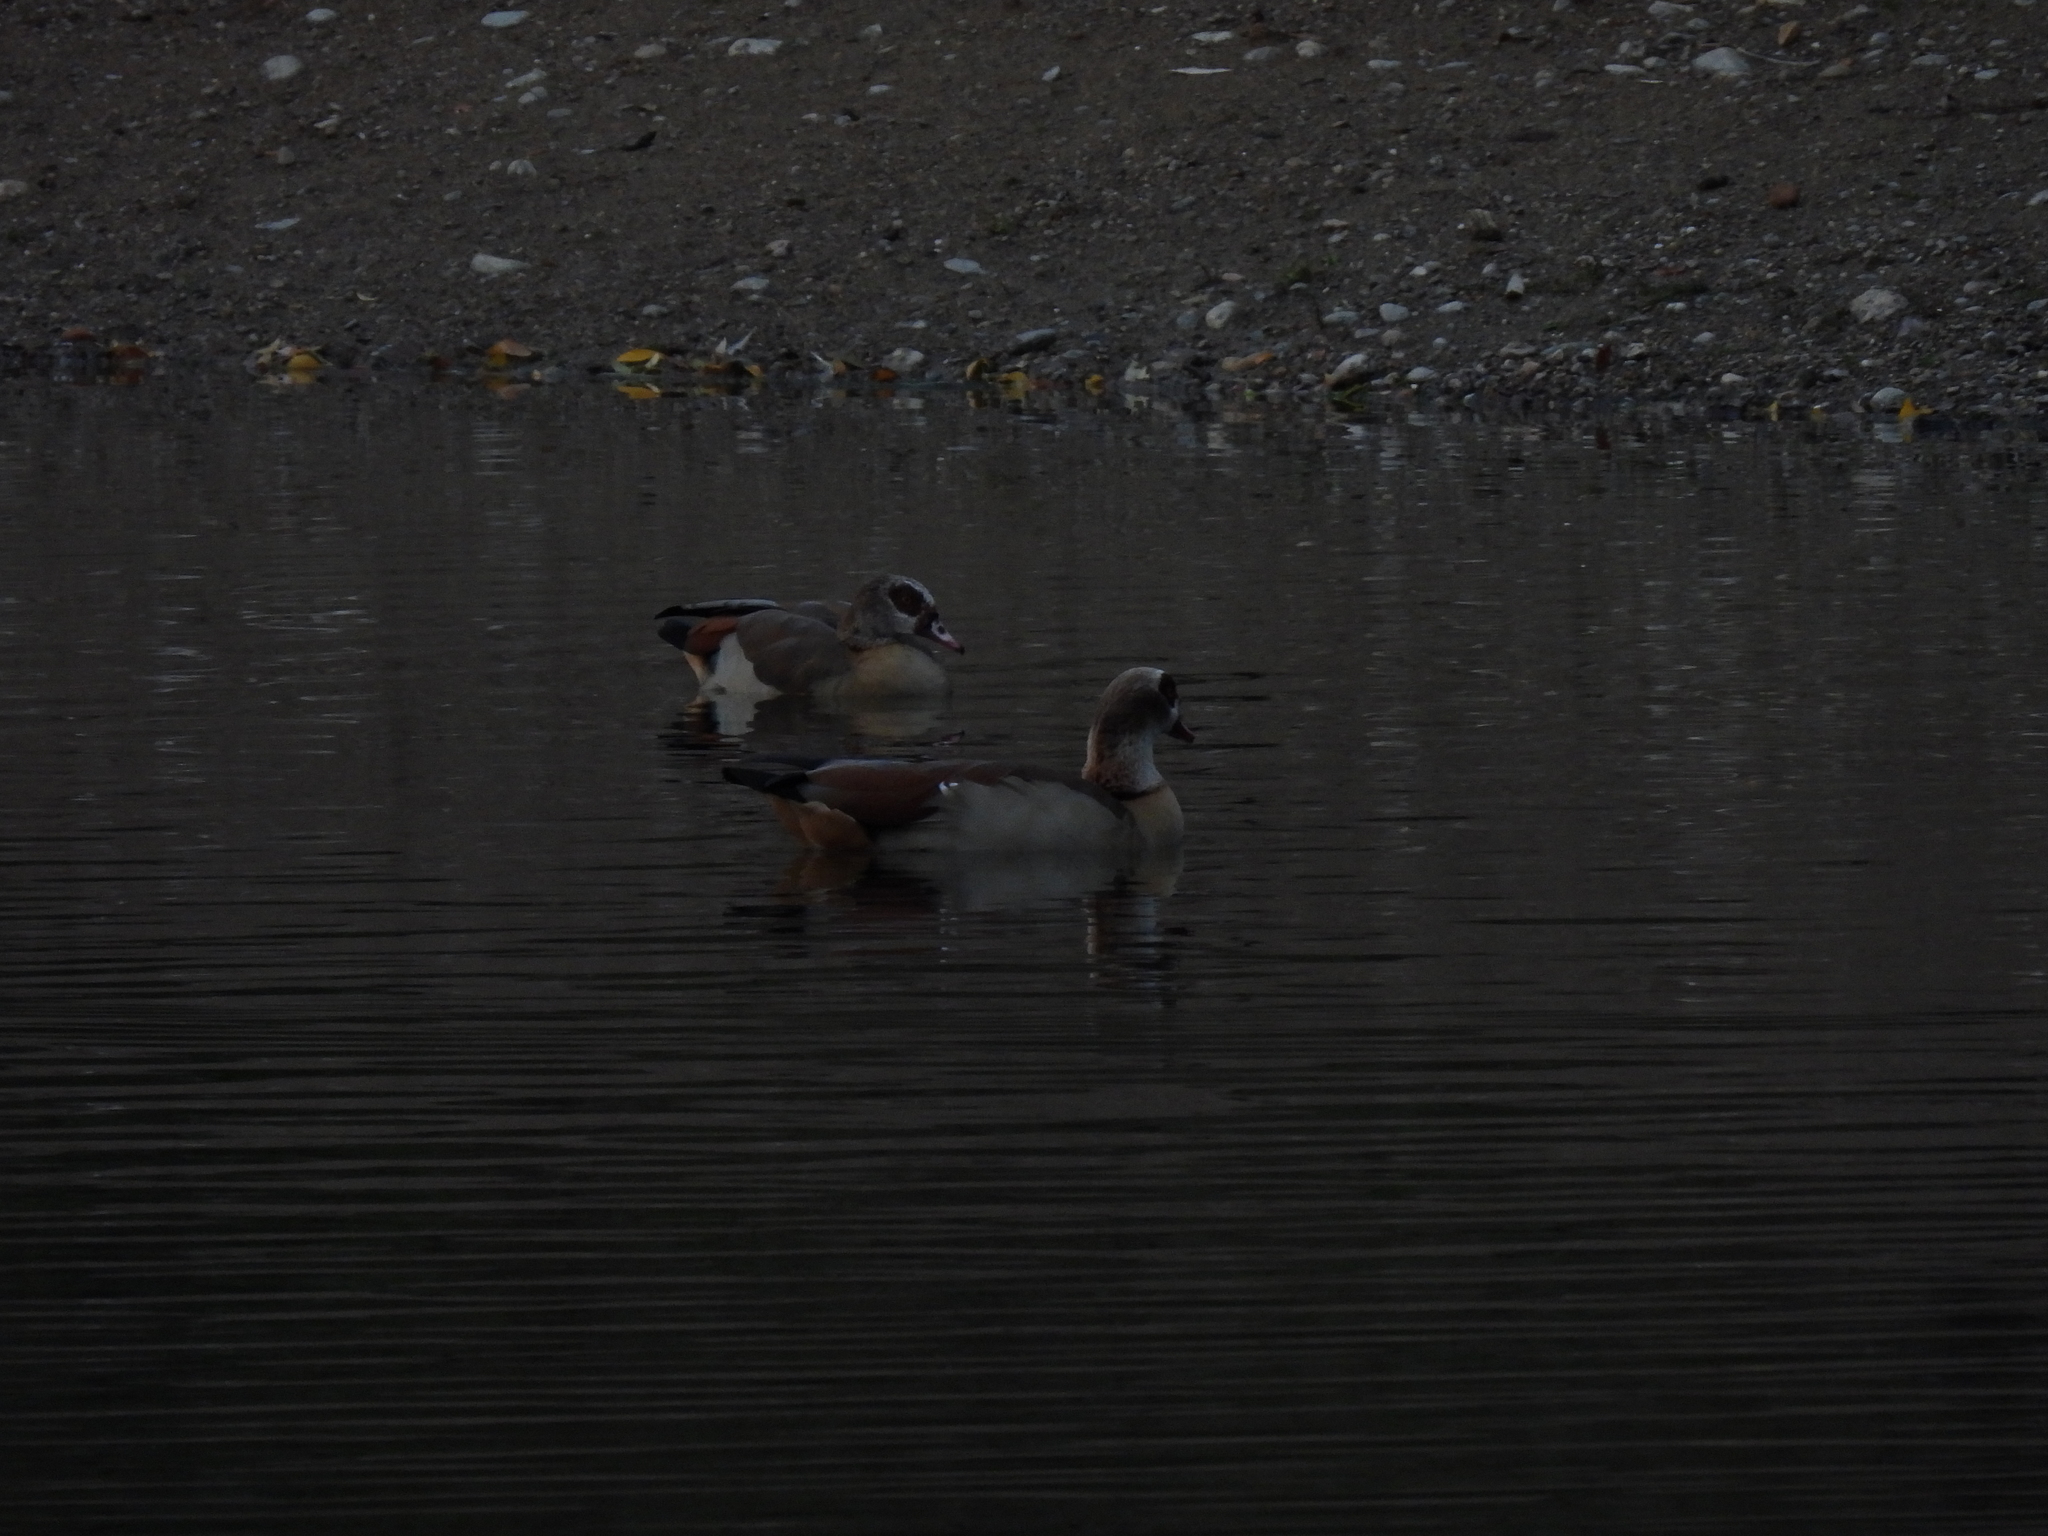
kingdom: Animalia
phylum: Chordata
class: Aves
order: Anseriformes
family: Anatidae
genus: Alopochen
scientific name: Alopochen aegyptiaca
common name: Egyptian goose
